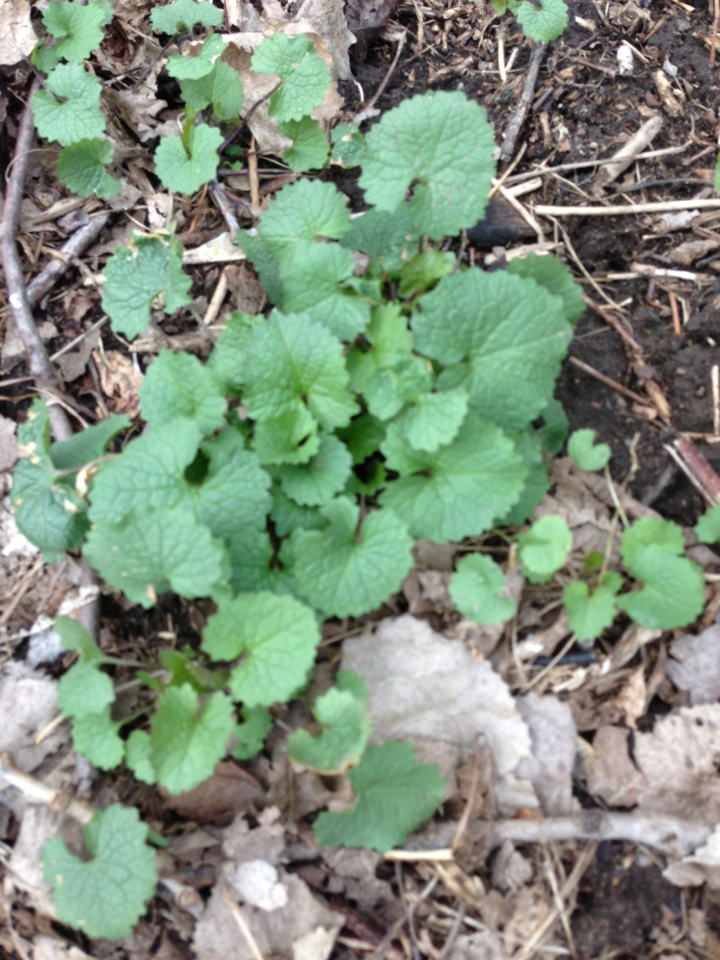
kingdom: Plantae
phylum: Tracheophyta
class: Magnoliopsida
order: Brassicales
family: Brassicaceae
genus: Alliaria
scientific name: Alliaria petiolata
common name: Garlic mustard
